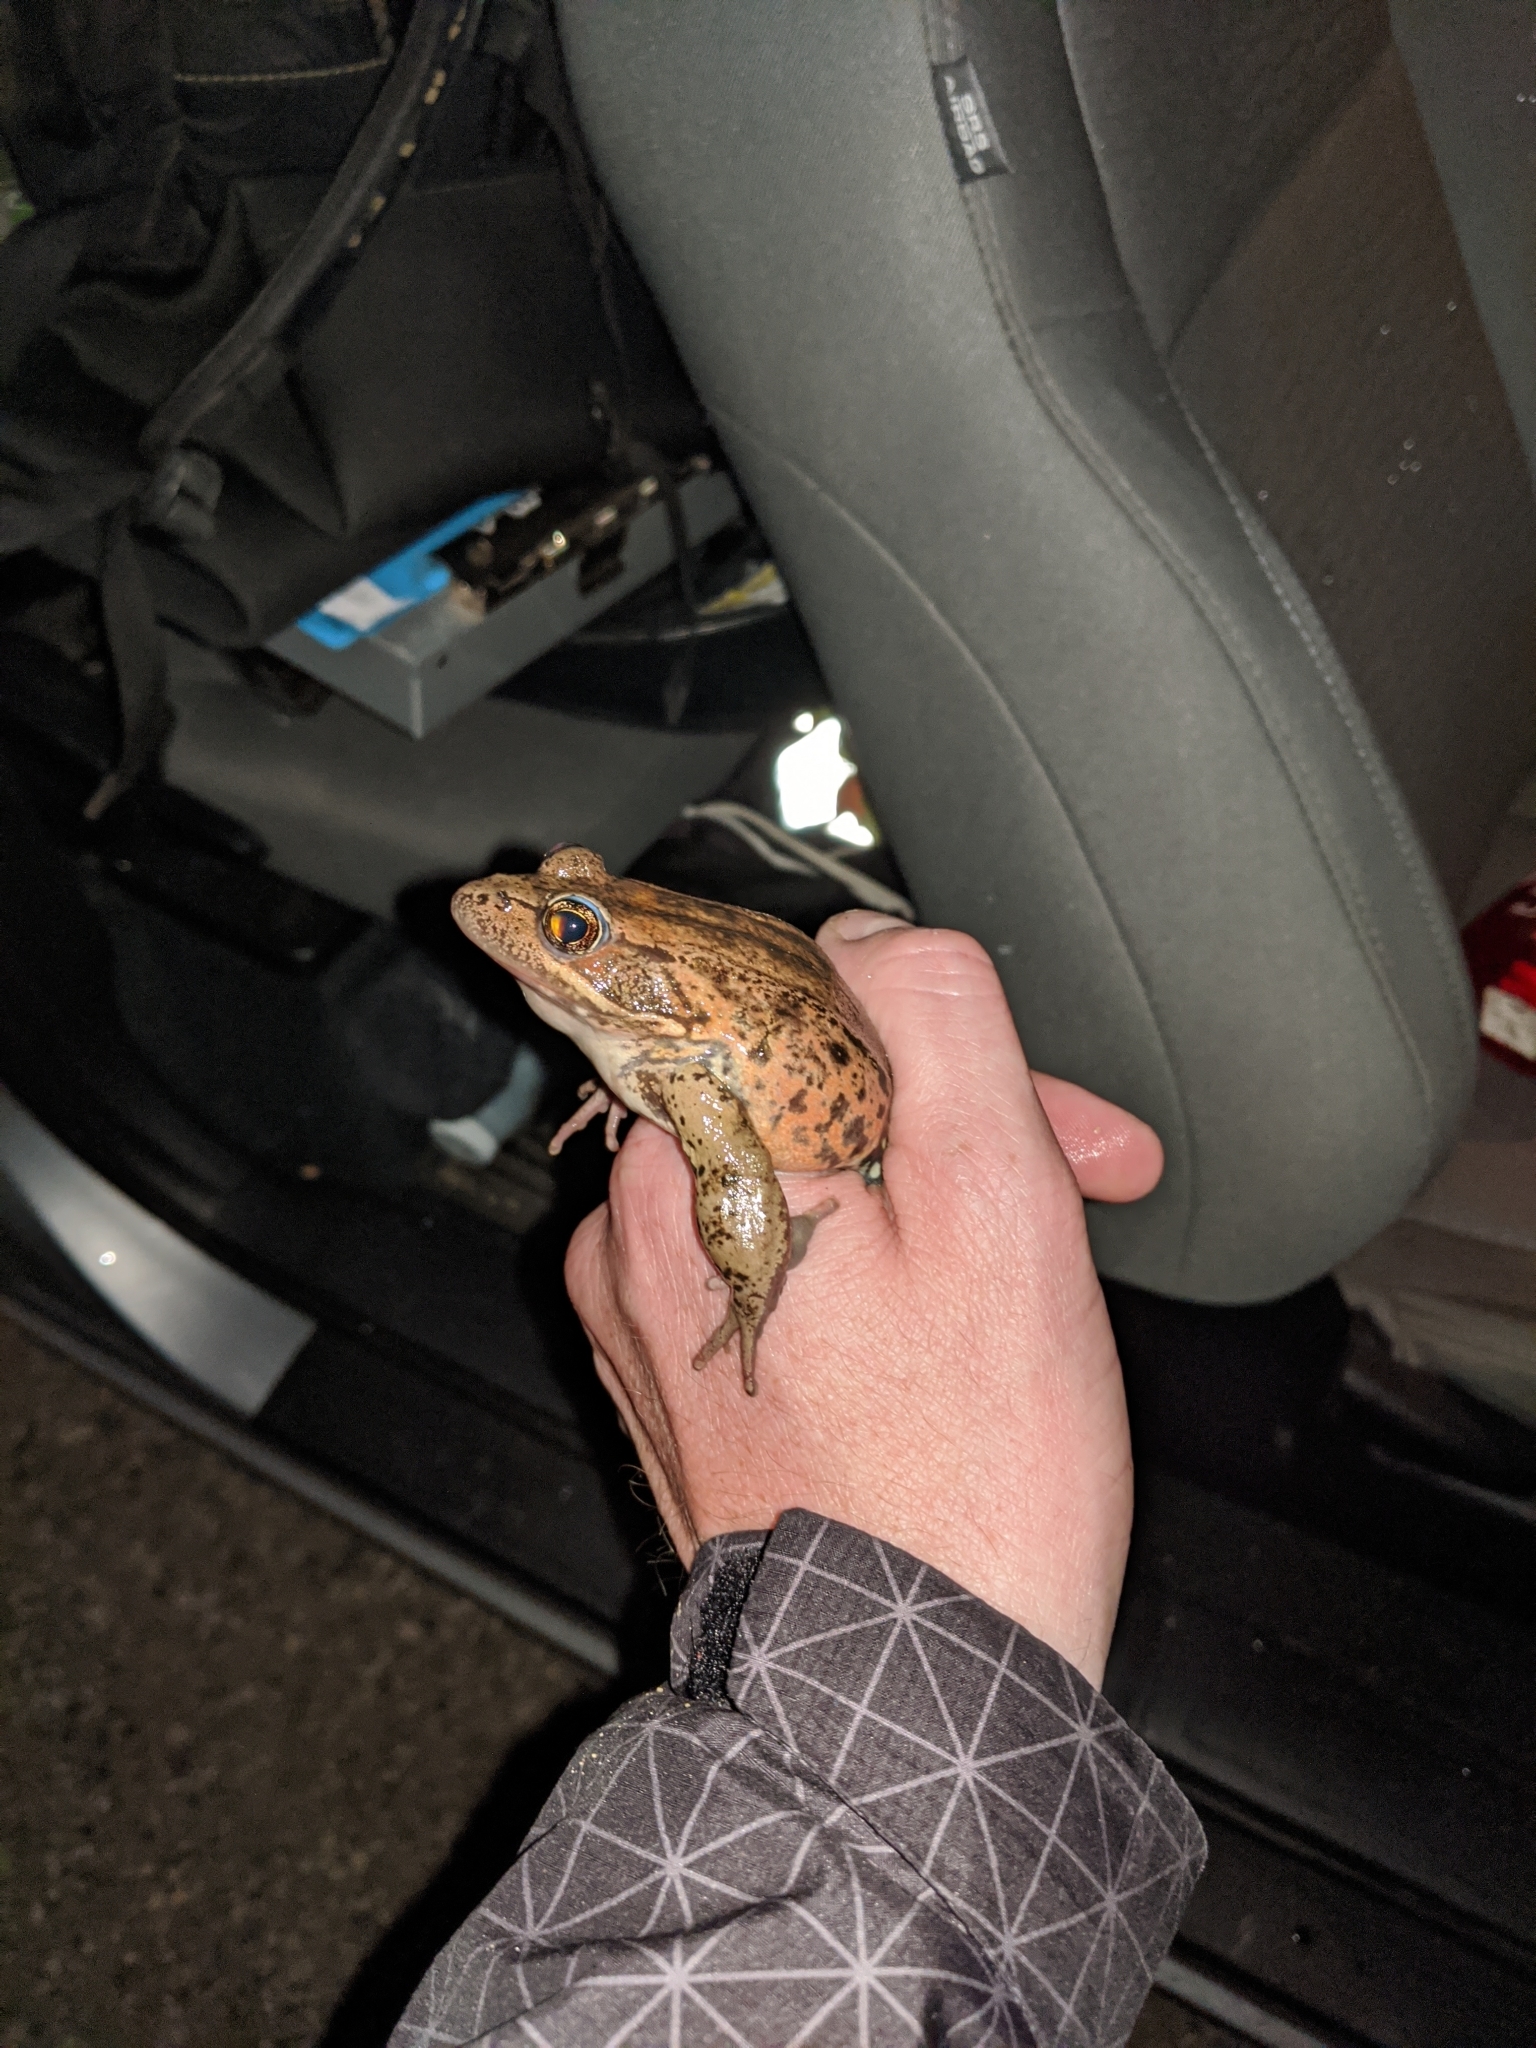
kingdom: Animalia
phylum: Chordata
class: Amphibia
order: Anura
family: Ranidae
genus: Rana
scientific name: Rana draytonii
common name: California red-legged frog
